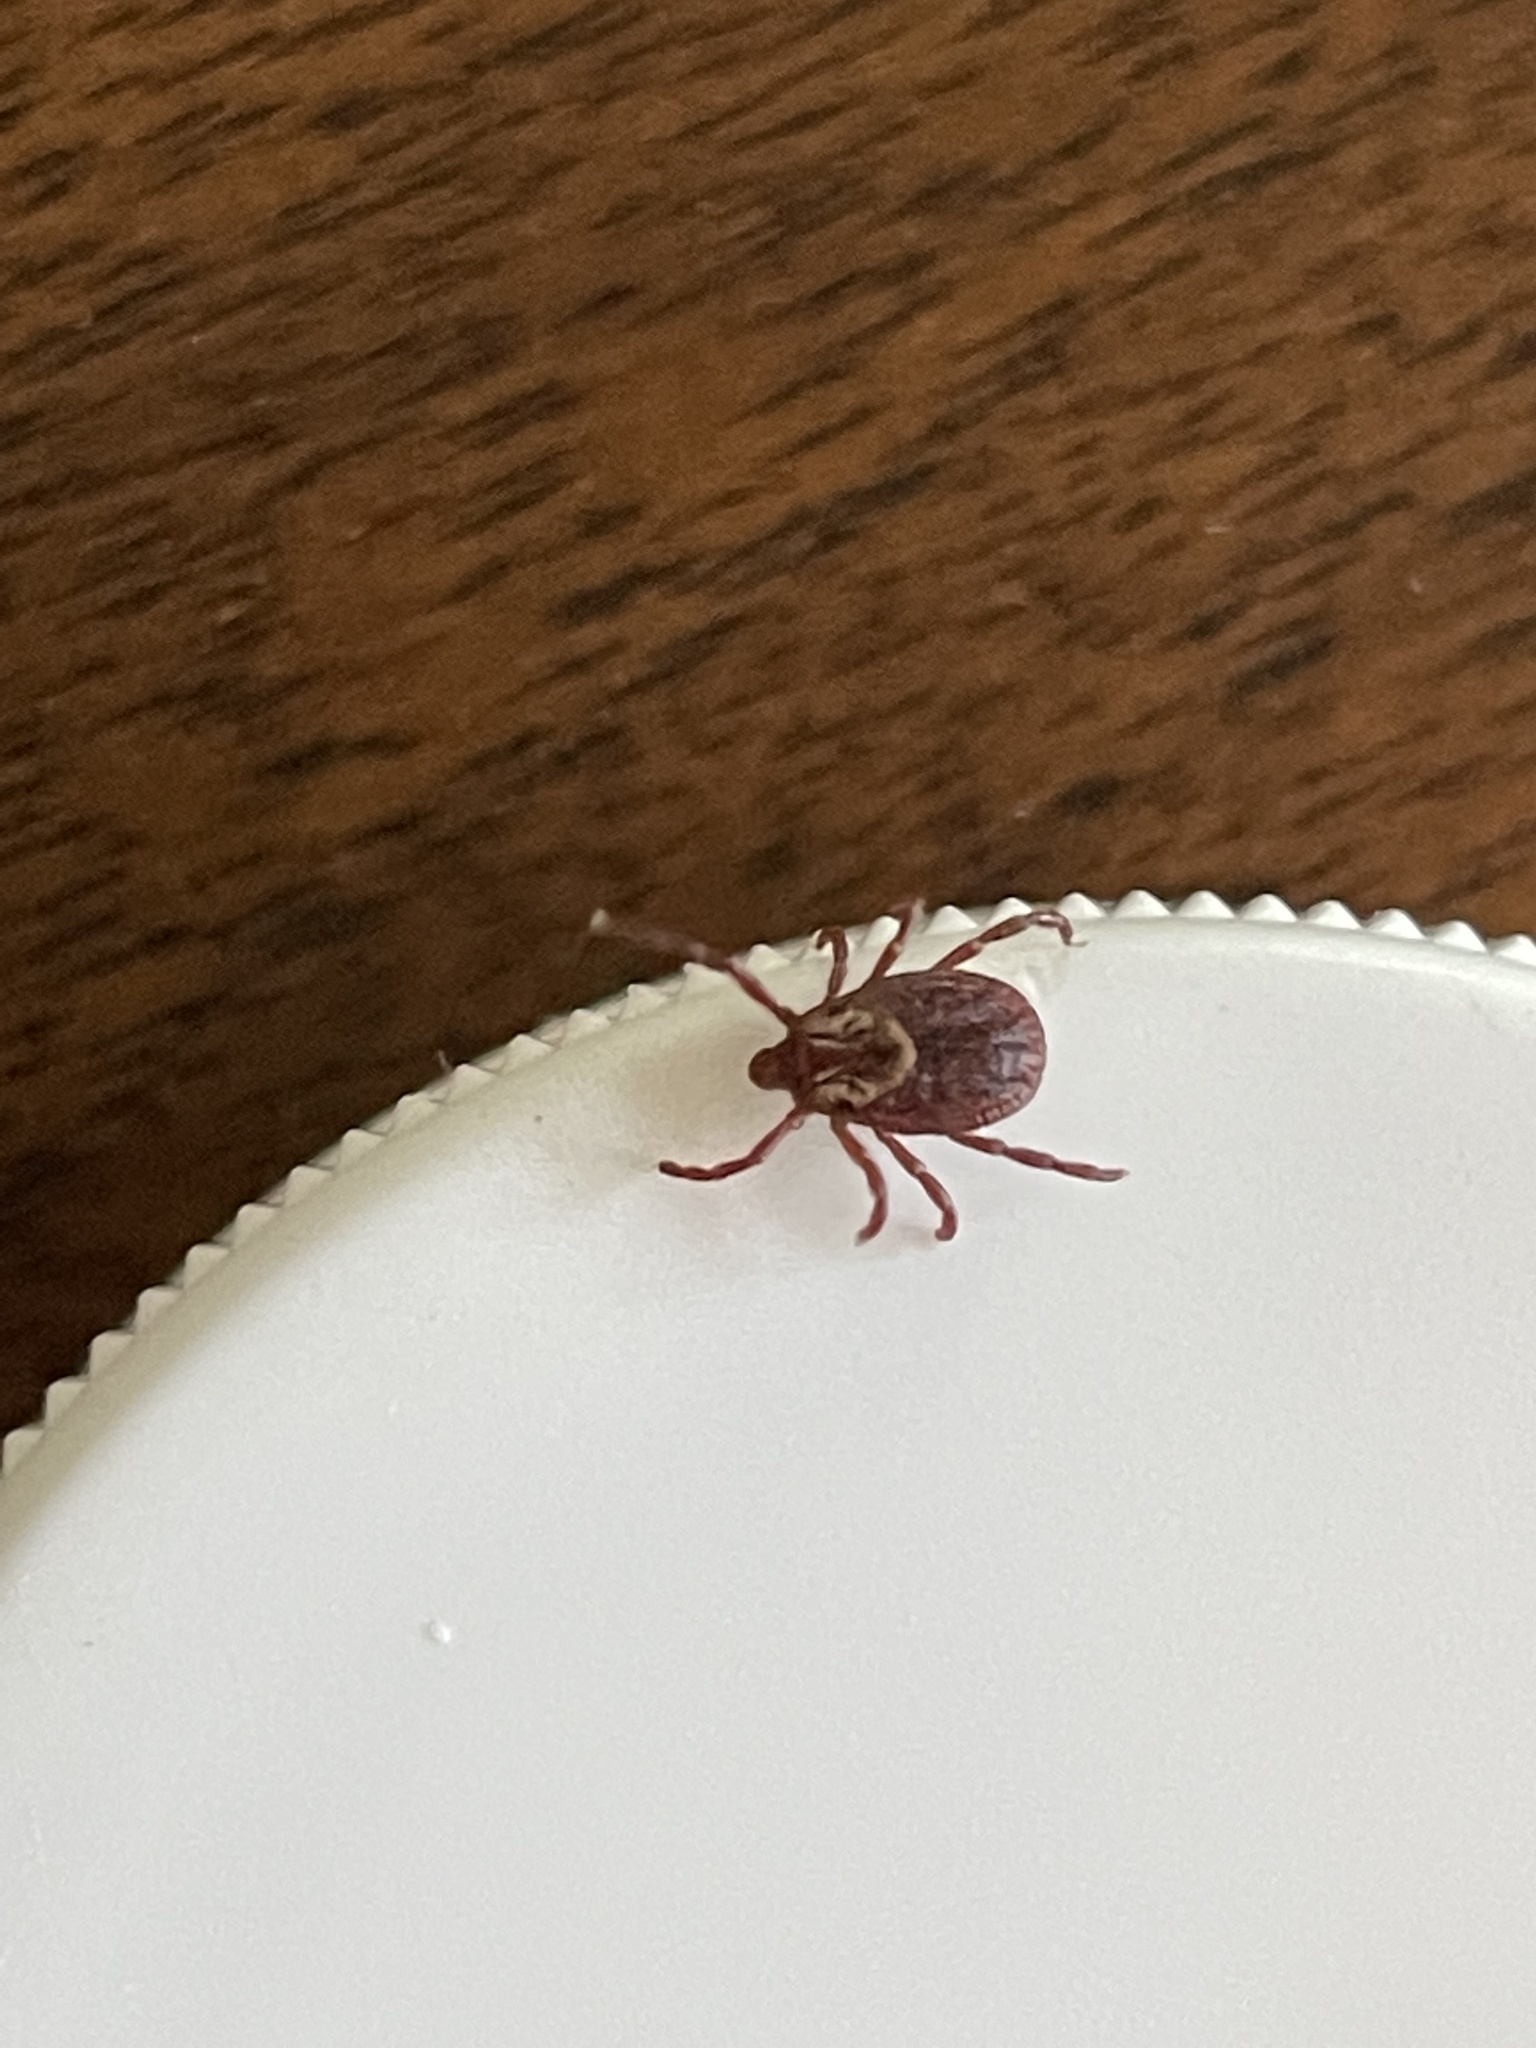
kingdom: Animalia
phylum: Arthropoda
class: Arachnida
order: Ixodida
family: Ixodidae
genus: Dermacentor
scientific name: Dermacentor variabilis
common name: American dog tick
